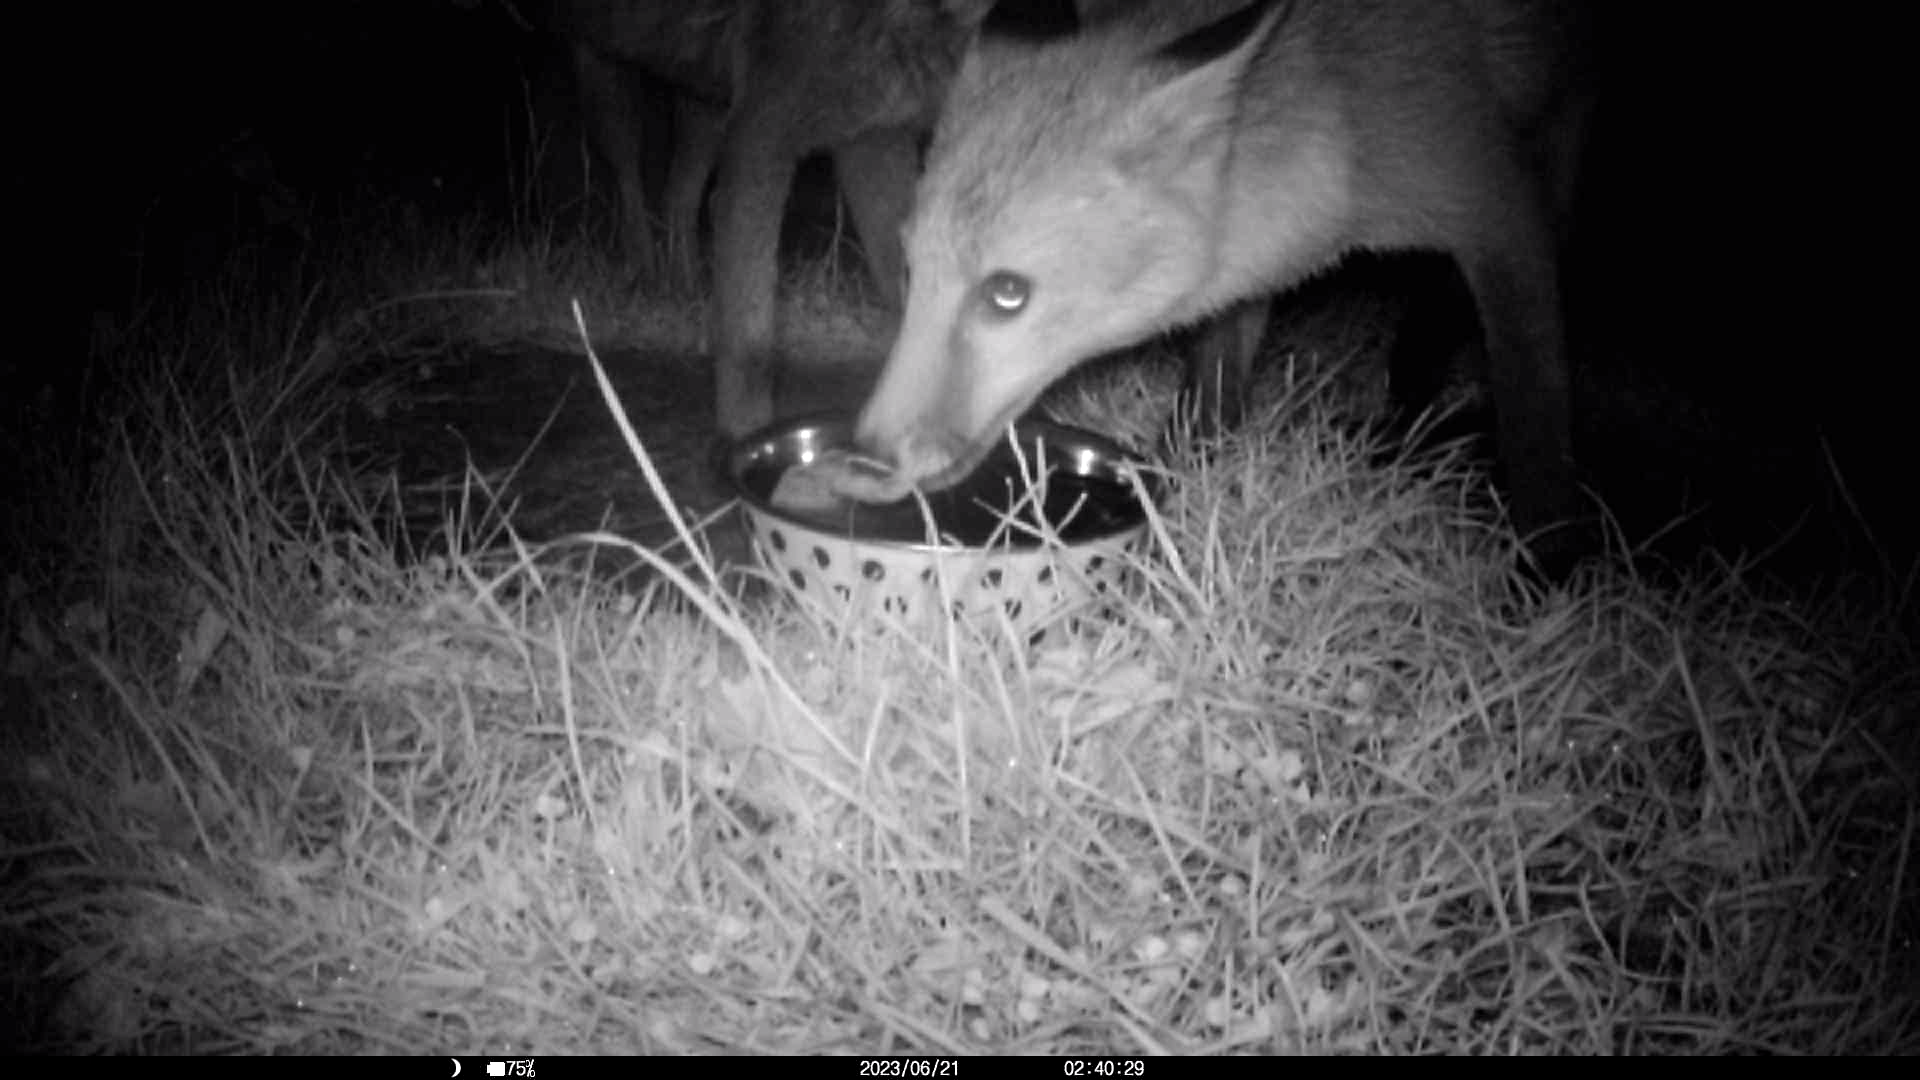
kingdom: Animalia
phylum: Chordata
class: Mammalia
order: Carnivora
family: Canidae
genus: Vulpes
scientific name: Vulpes vulpes
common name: Red fox
